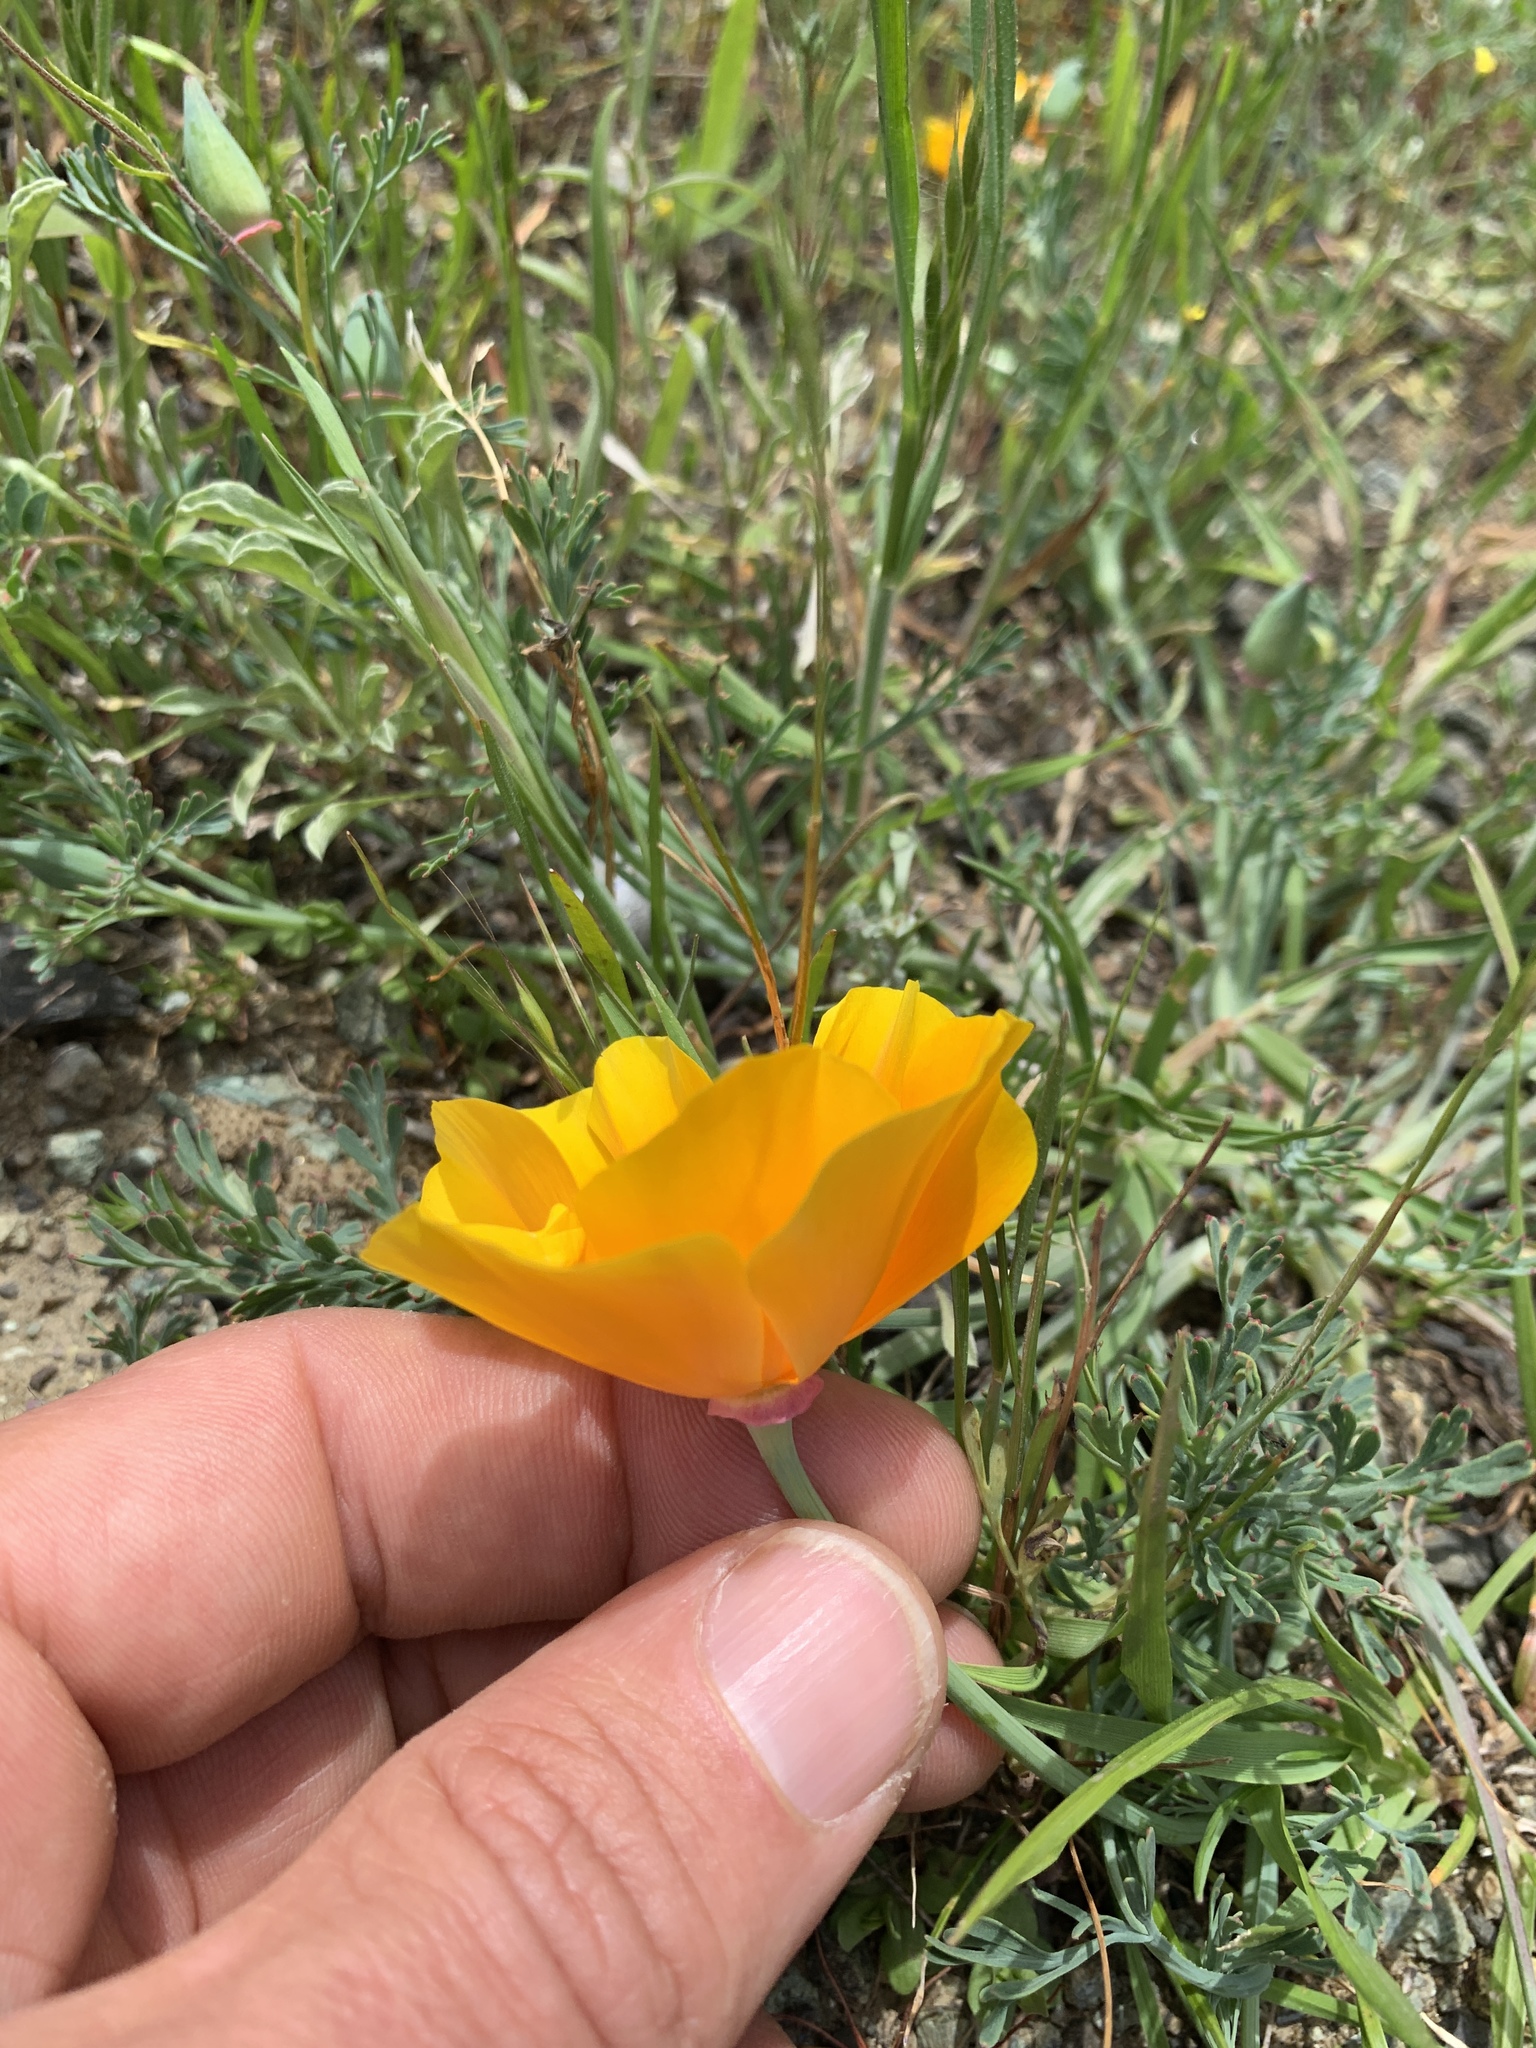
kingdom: Plantae
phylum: Tracheophyta
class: Magnoliopsida
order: Ranunculales
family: Papaveraceae
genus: Eschscholzia
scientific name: Eschscholzia californica
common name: California poppy
